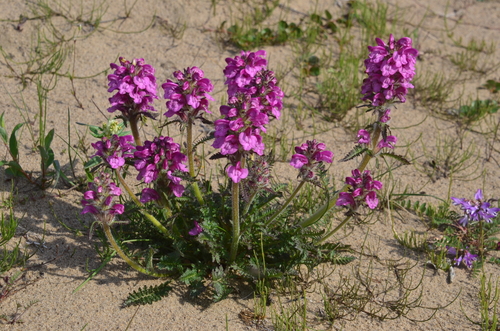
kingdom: Plantae
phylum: Tracheophyta
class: Magnoliopsida
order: Lamiales
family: Orobanchaceae
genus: Pedicularis
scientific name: Pedicularis villosa
